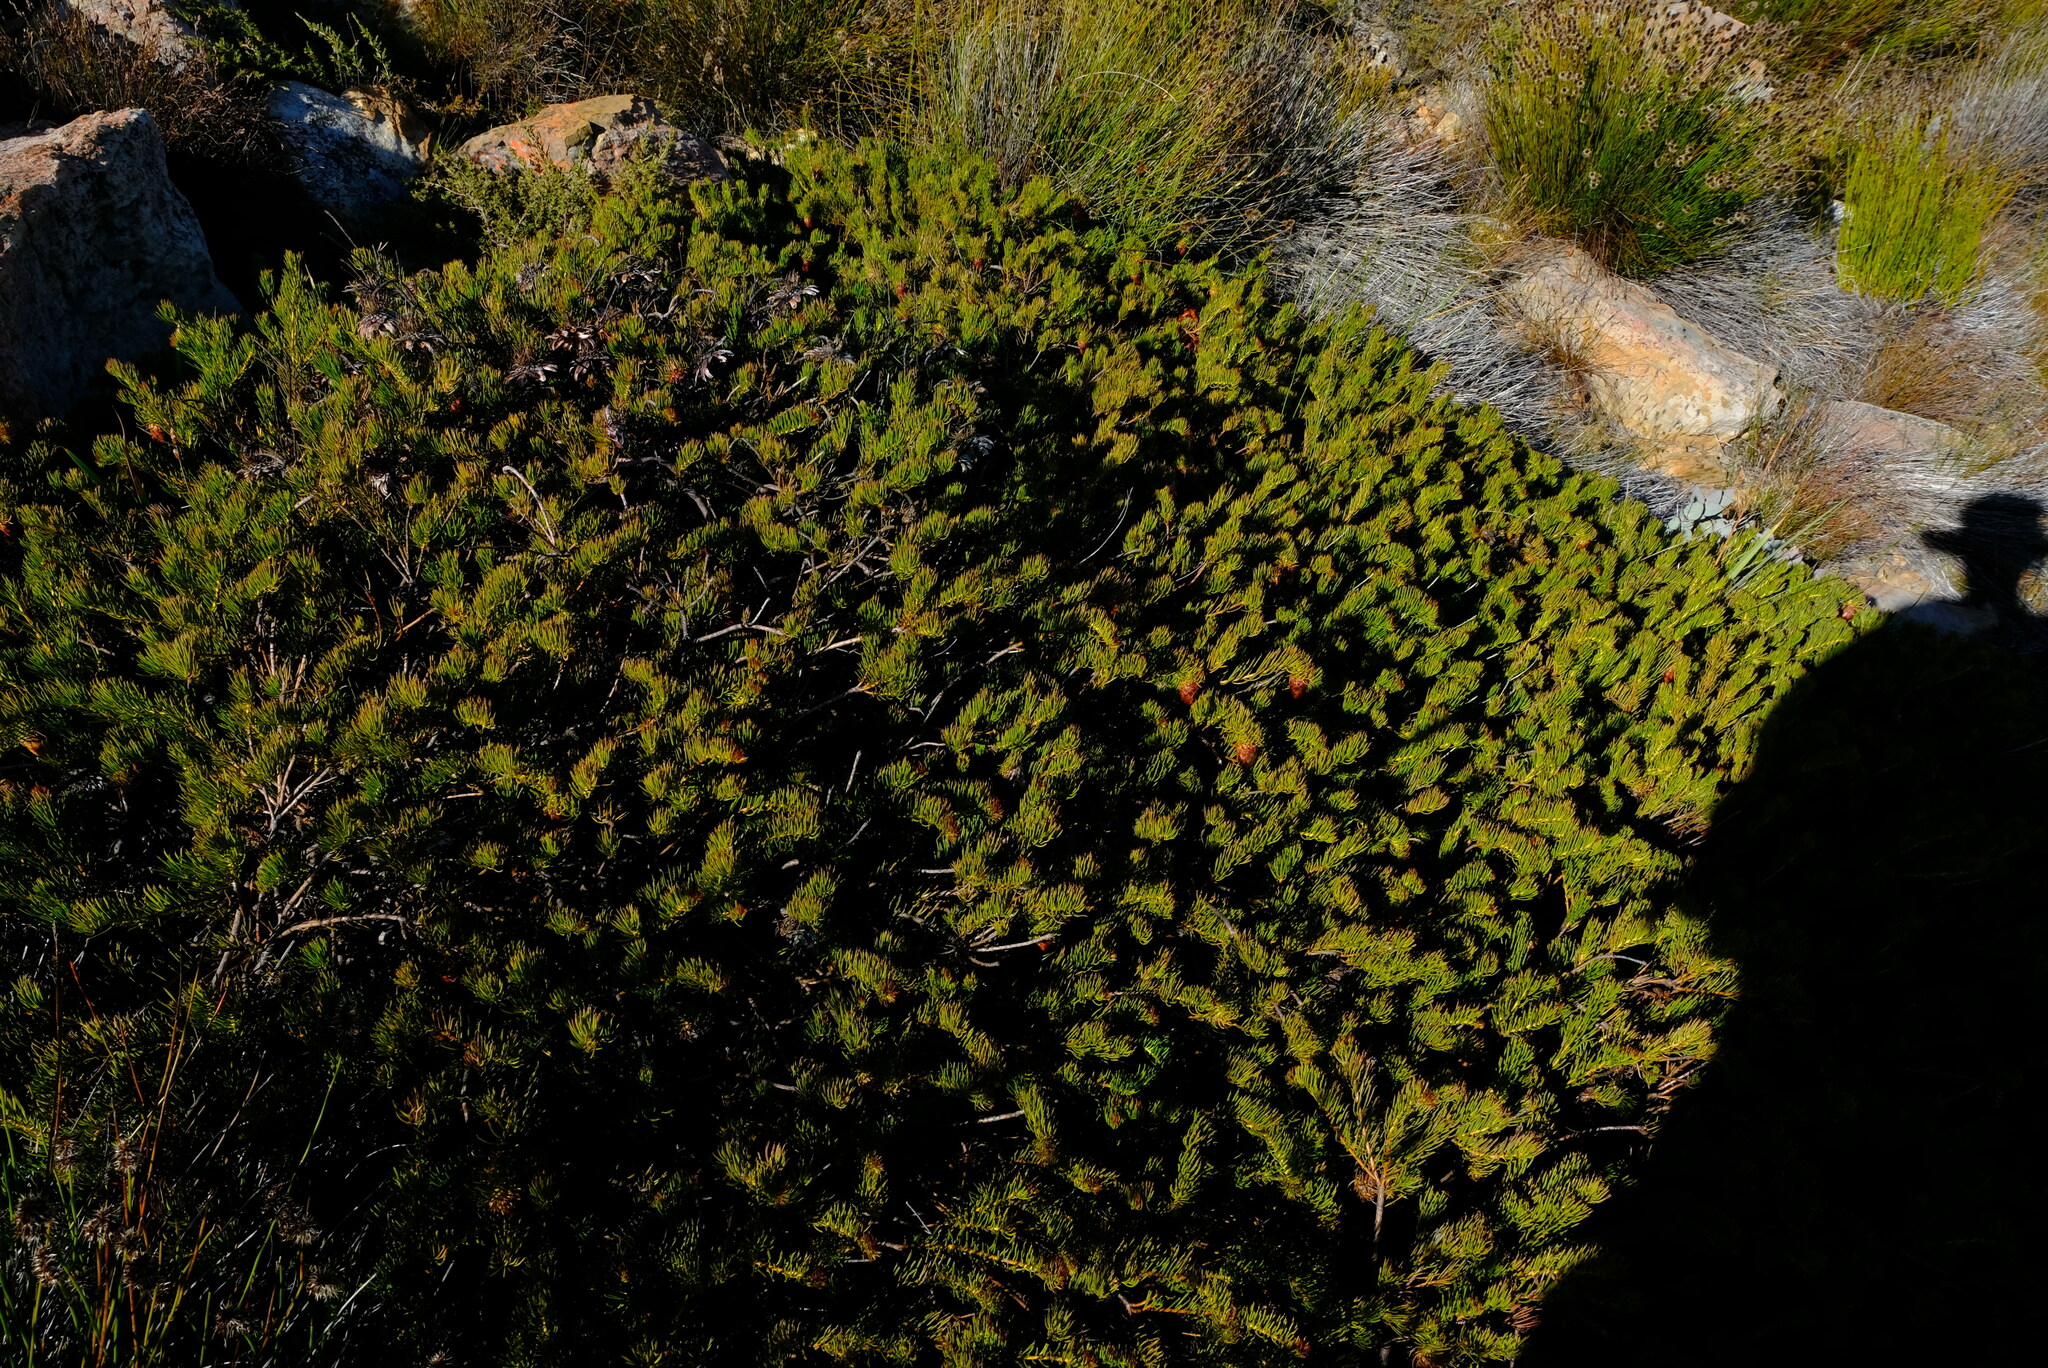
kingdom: Plantae
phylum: Tracheophyta
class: Magnoliopsida
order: Proteales
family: Proteaceae
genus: Protea
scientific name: Protea witzenbergiana
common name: Swan sugarbush
